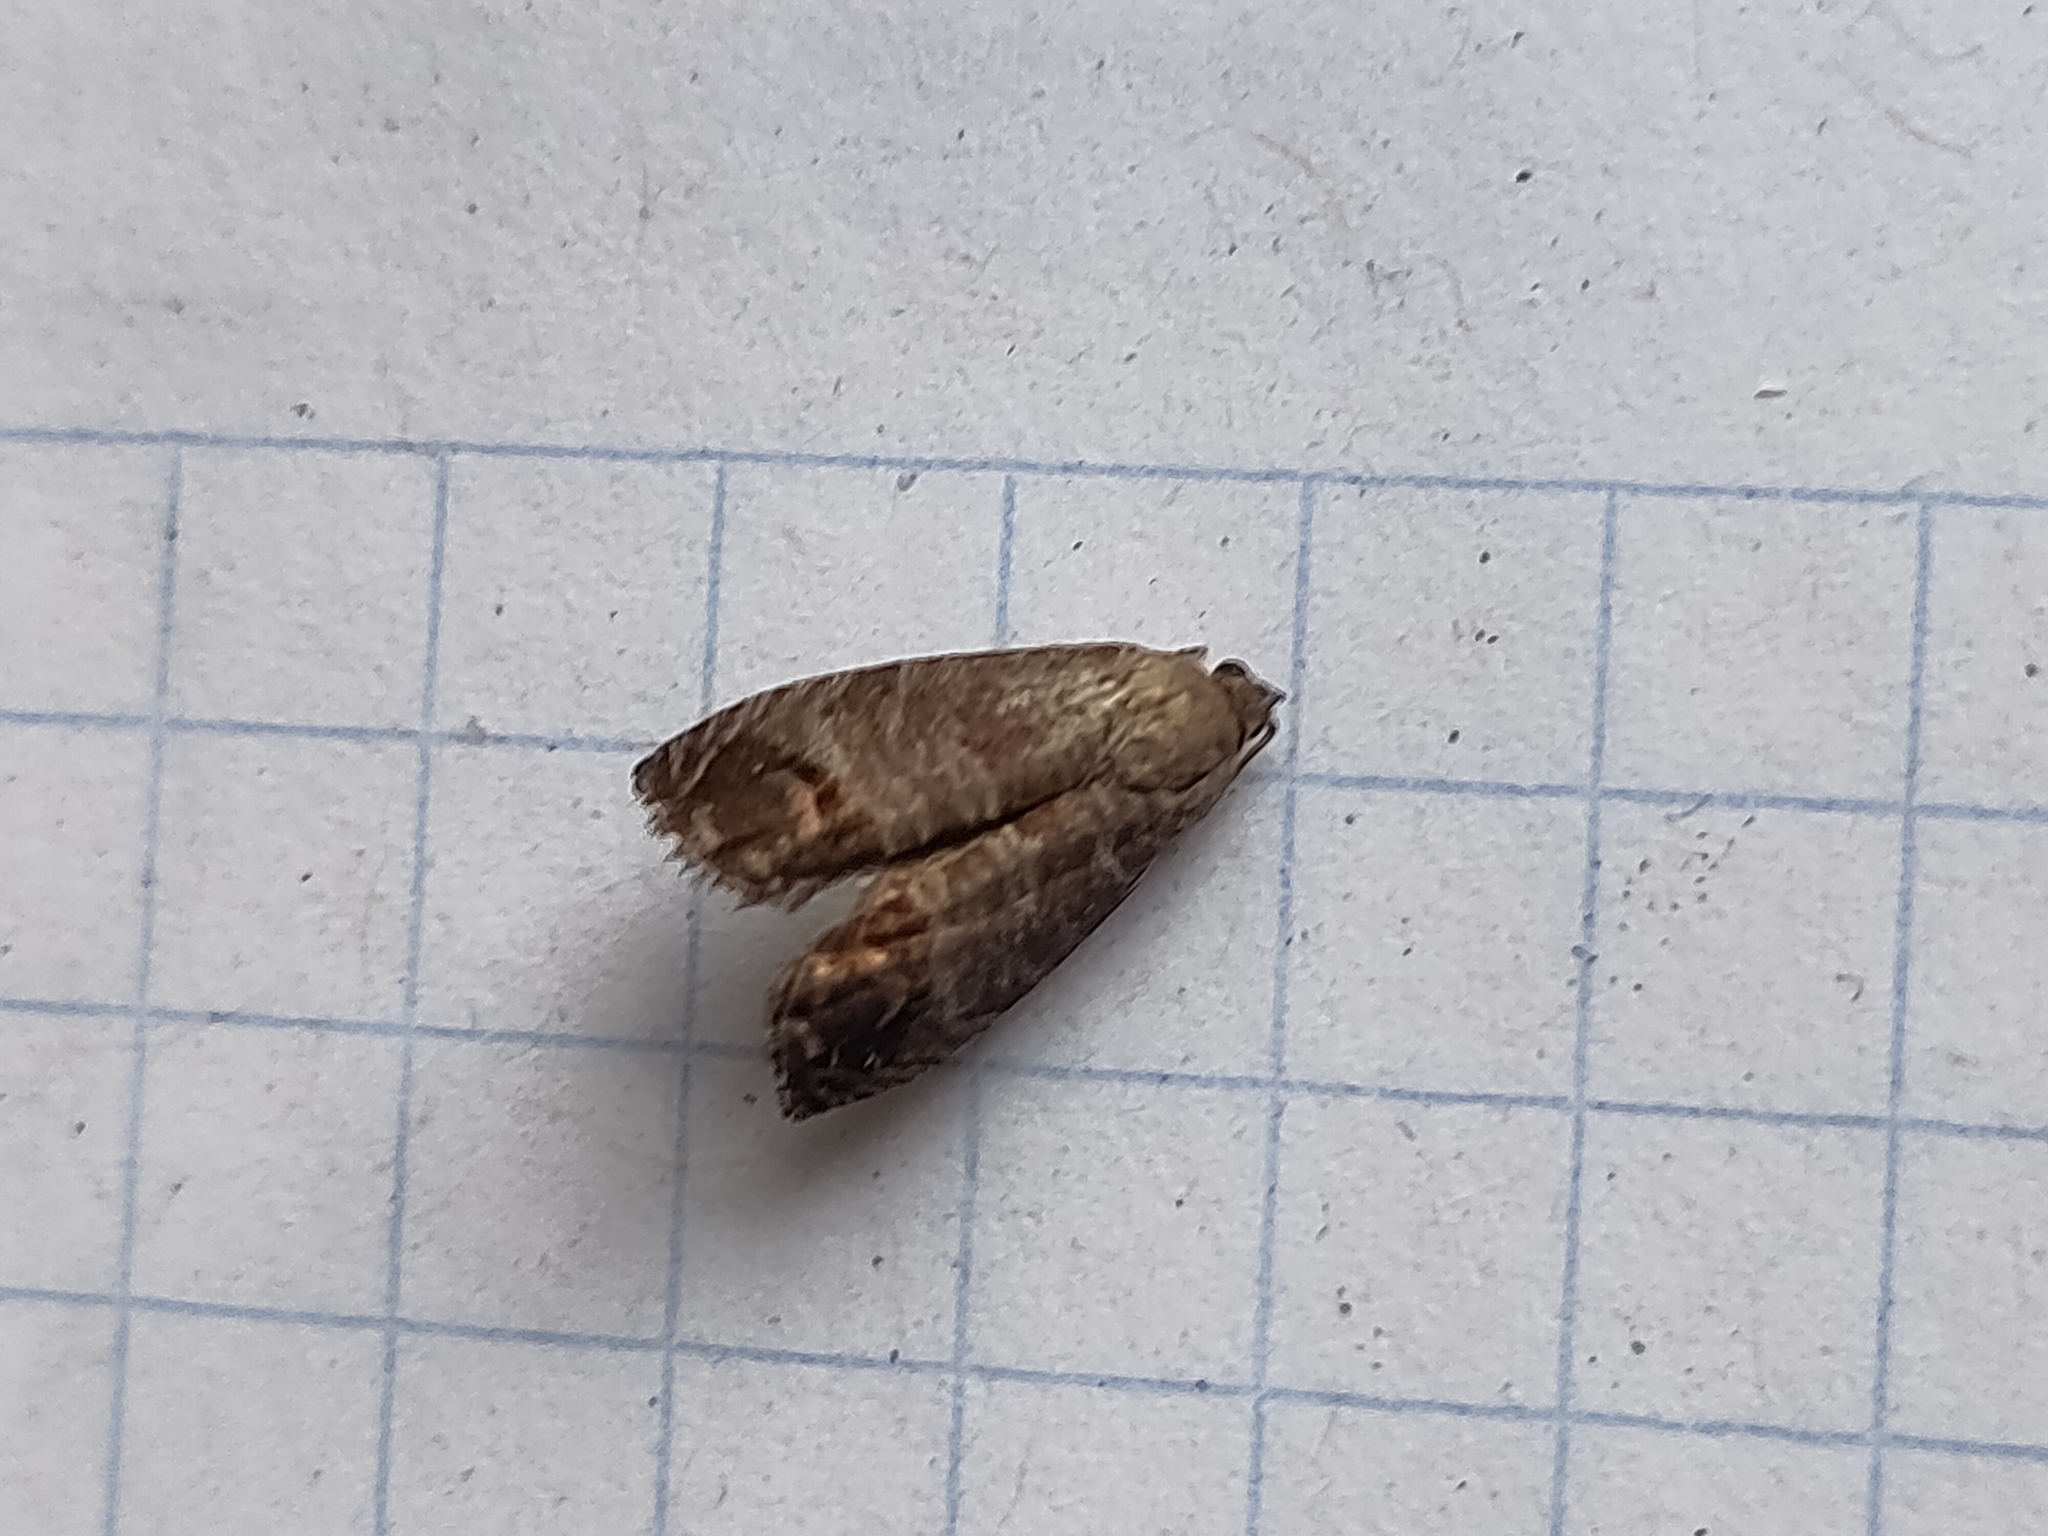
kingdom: Animalia
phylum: Arthropoda
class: Insecta
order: Lepidoptera
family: Tortricidae
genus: Cydia
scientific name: Cydia pomonella
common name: Codling moth
